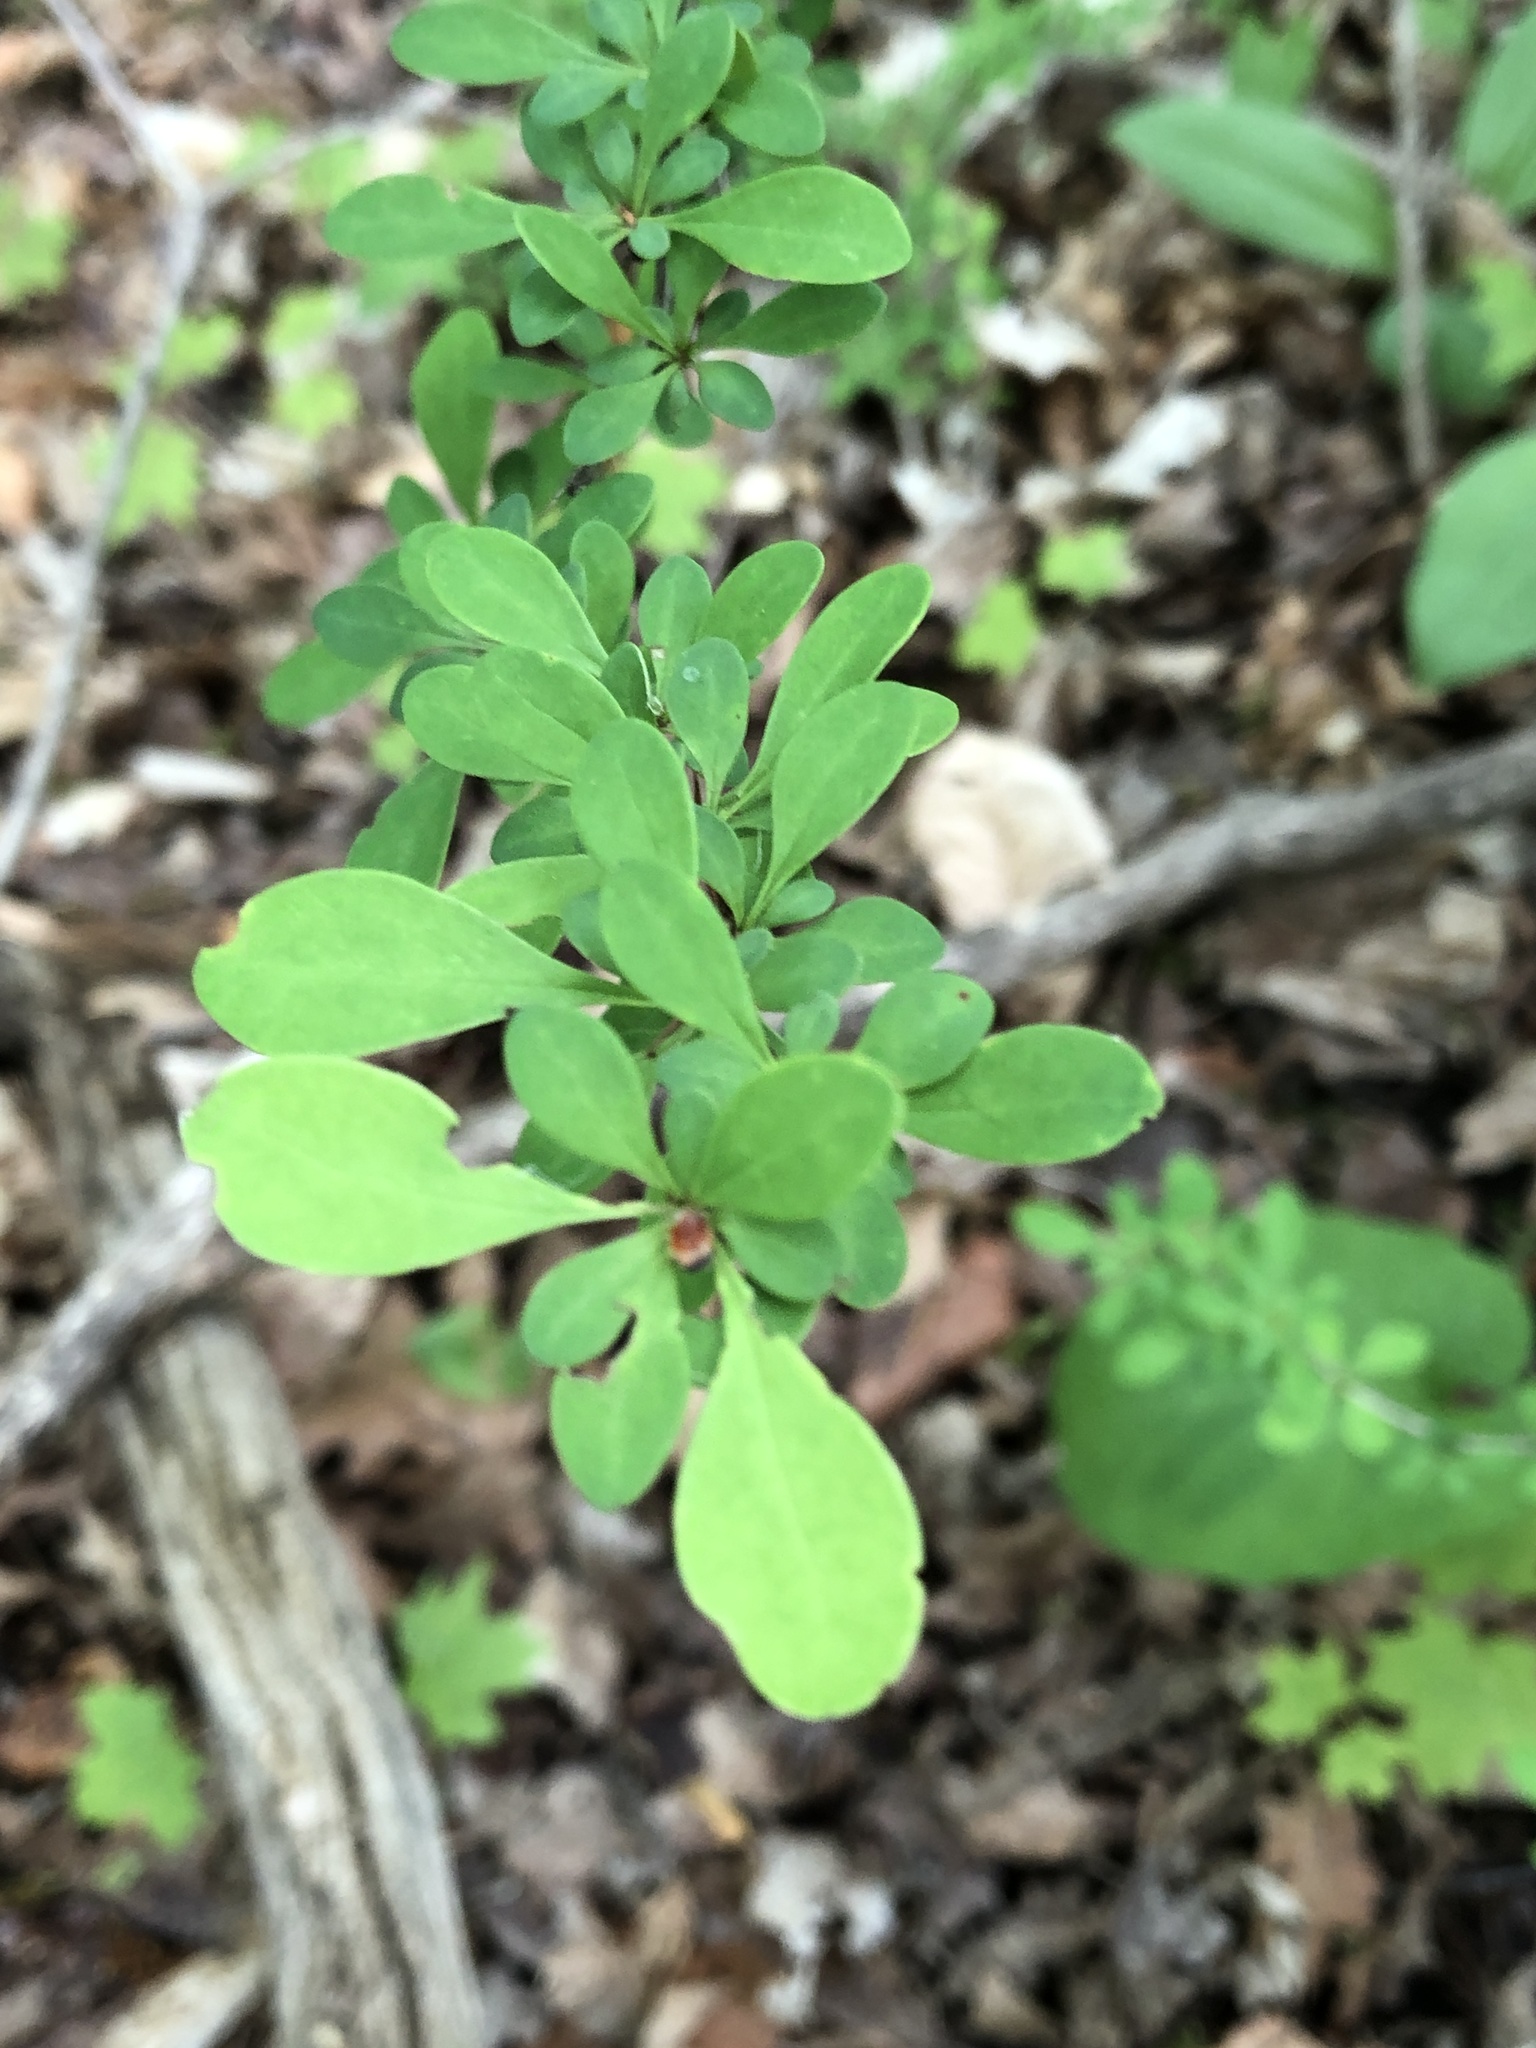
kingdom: Plantae
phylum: Tracheophyta
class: Magnoliopsida
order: Ranunculales
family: Berberidaceae
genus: Berberis
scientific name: Berberis thunbergii
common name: Japanese barberry
